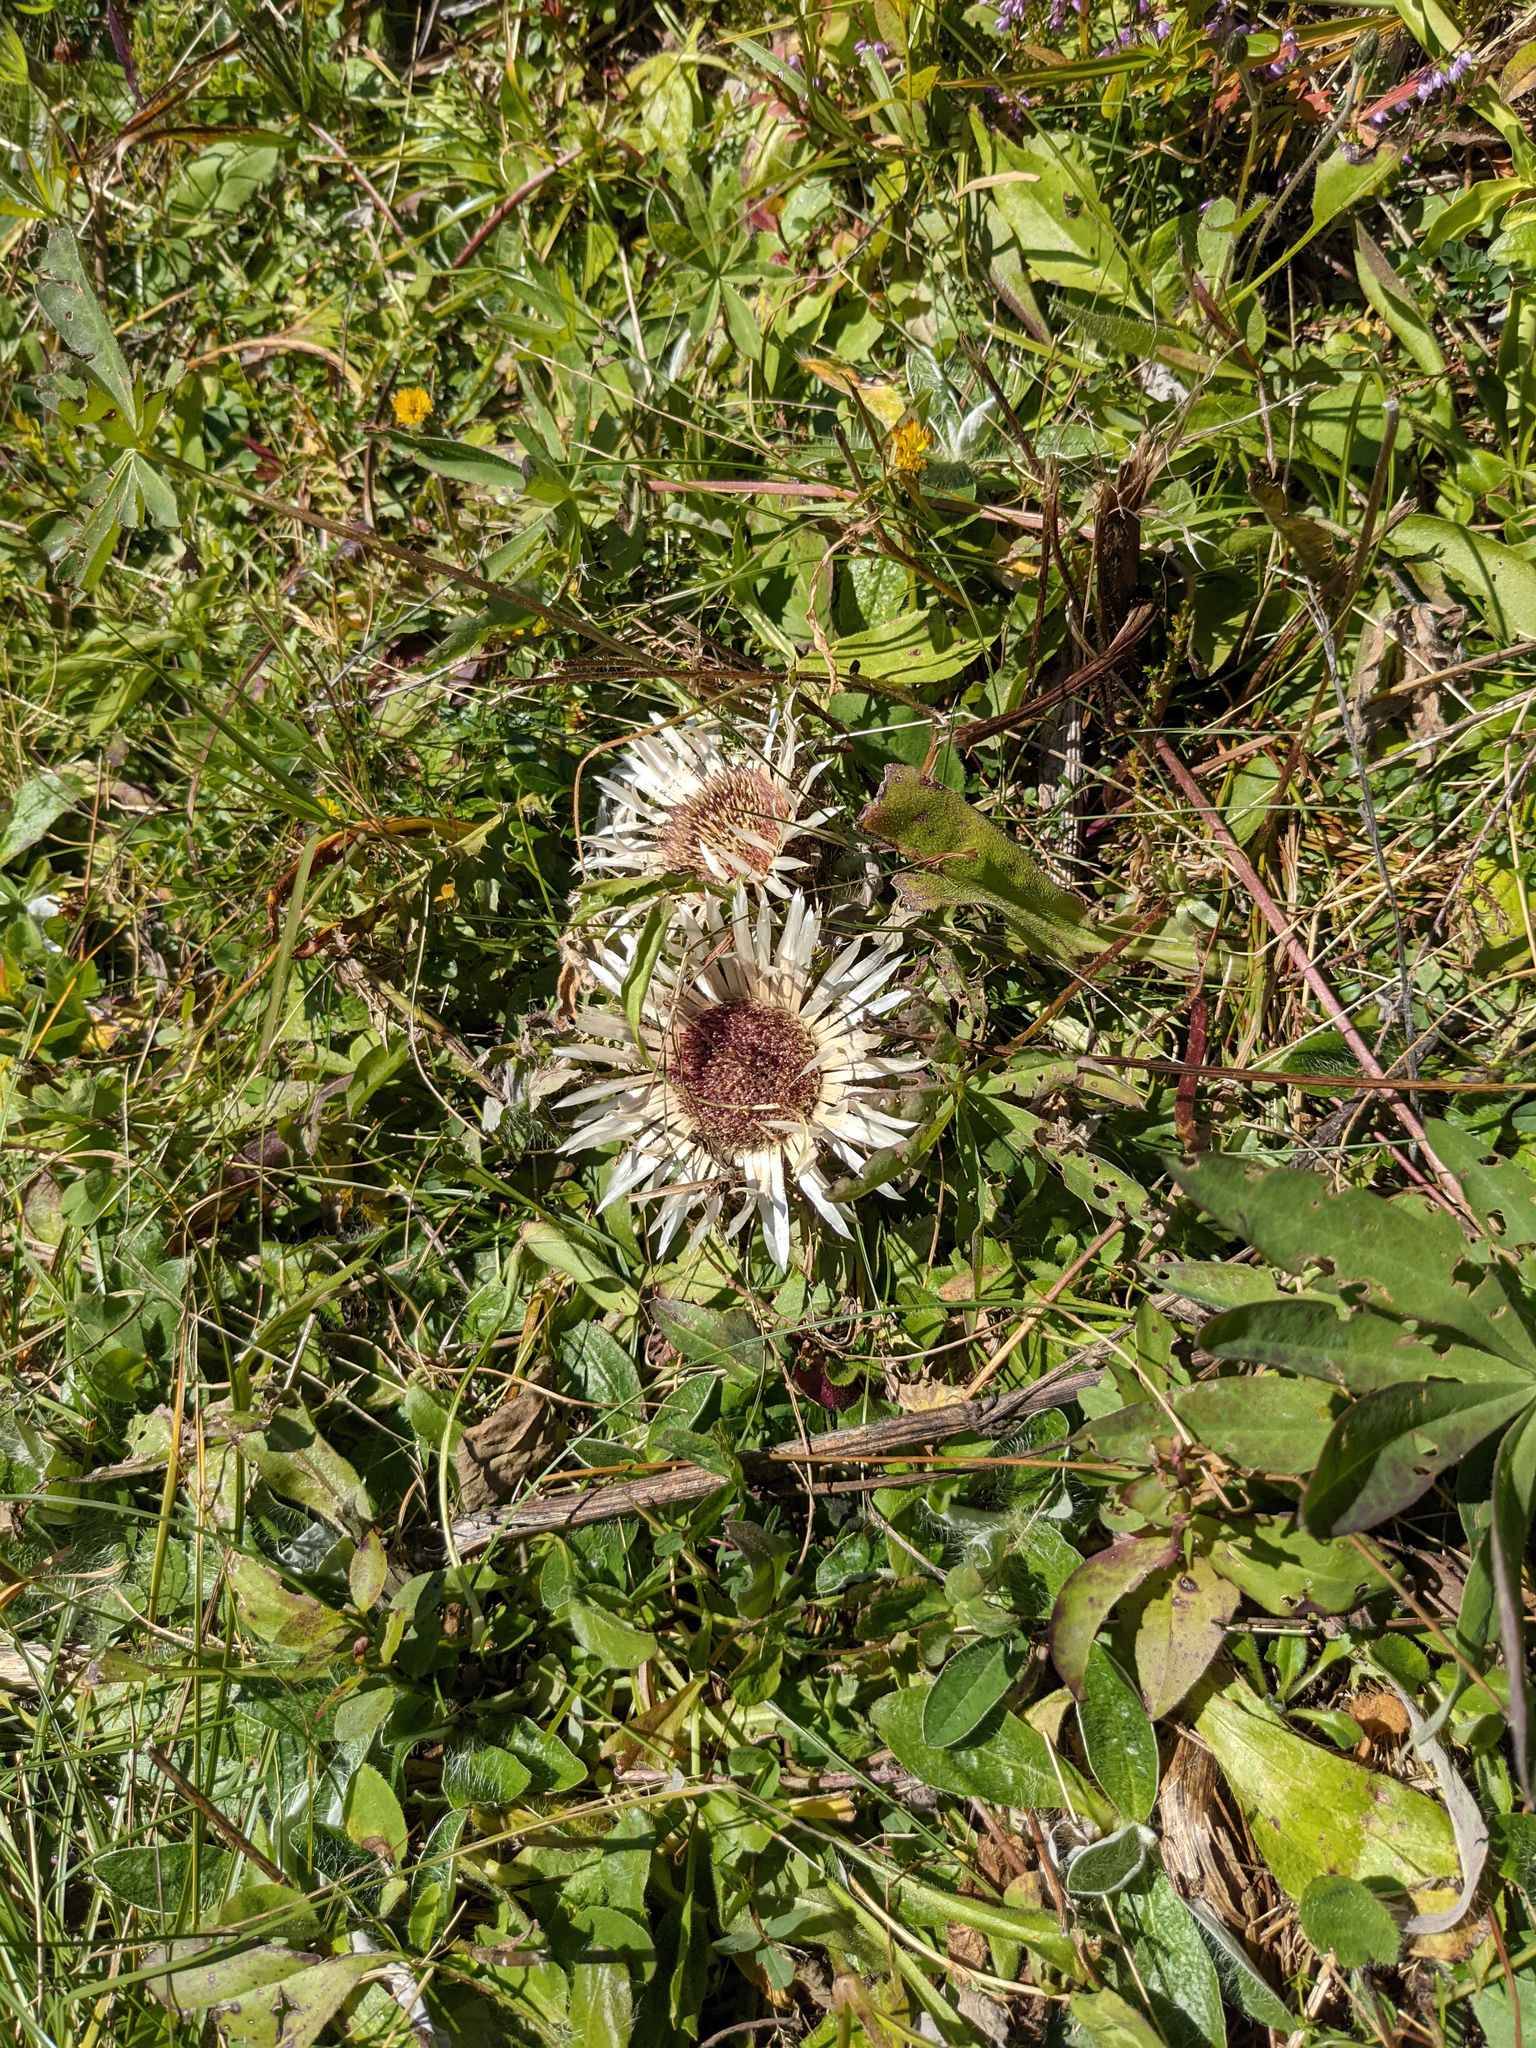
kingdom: Plantae
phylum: Tracheophyta
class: Magnoliopsida
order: Asterales
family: Asteraceae
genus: Carlina
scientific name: Carlina acaulis
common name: Stemless carline thistle
